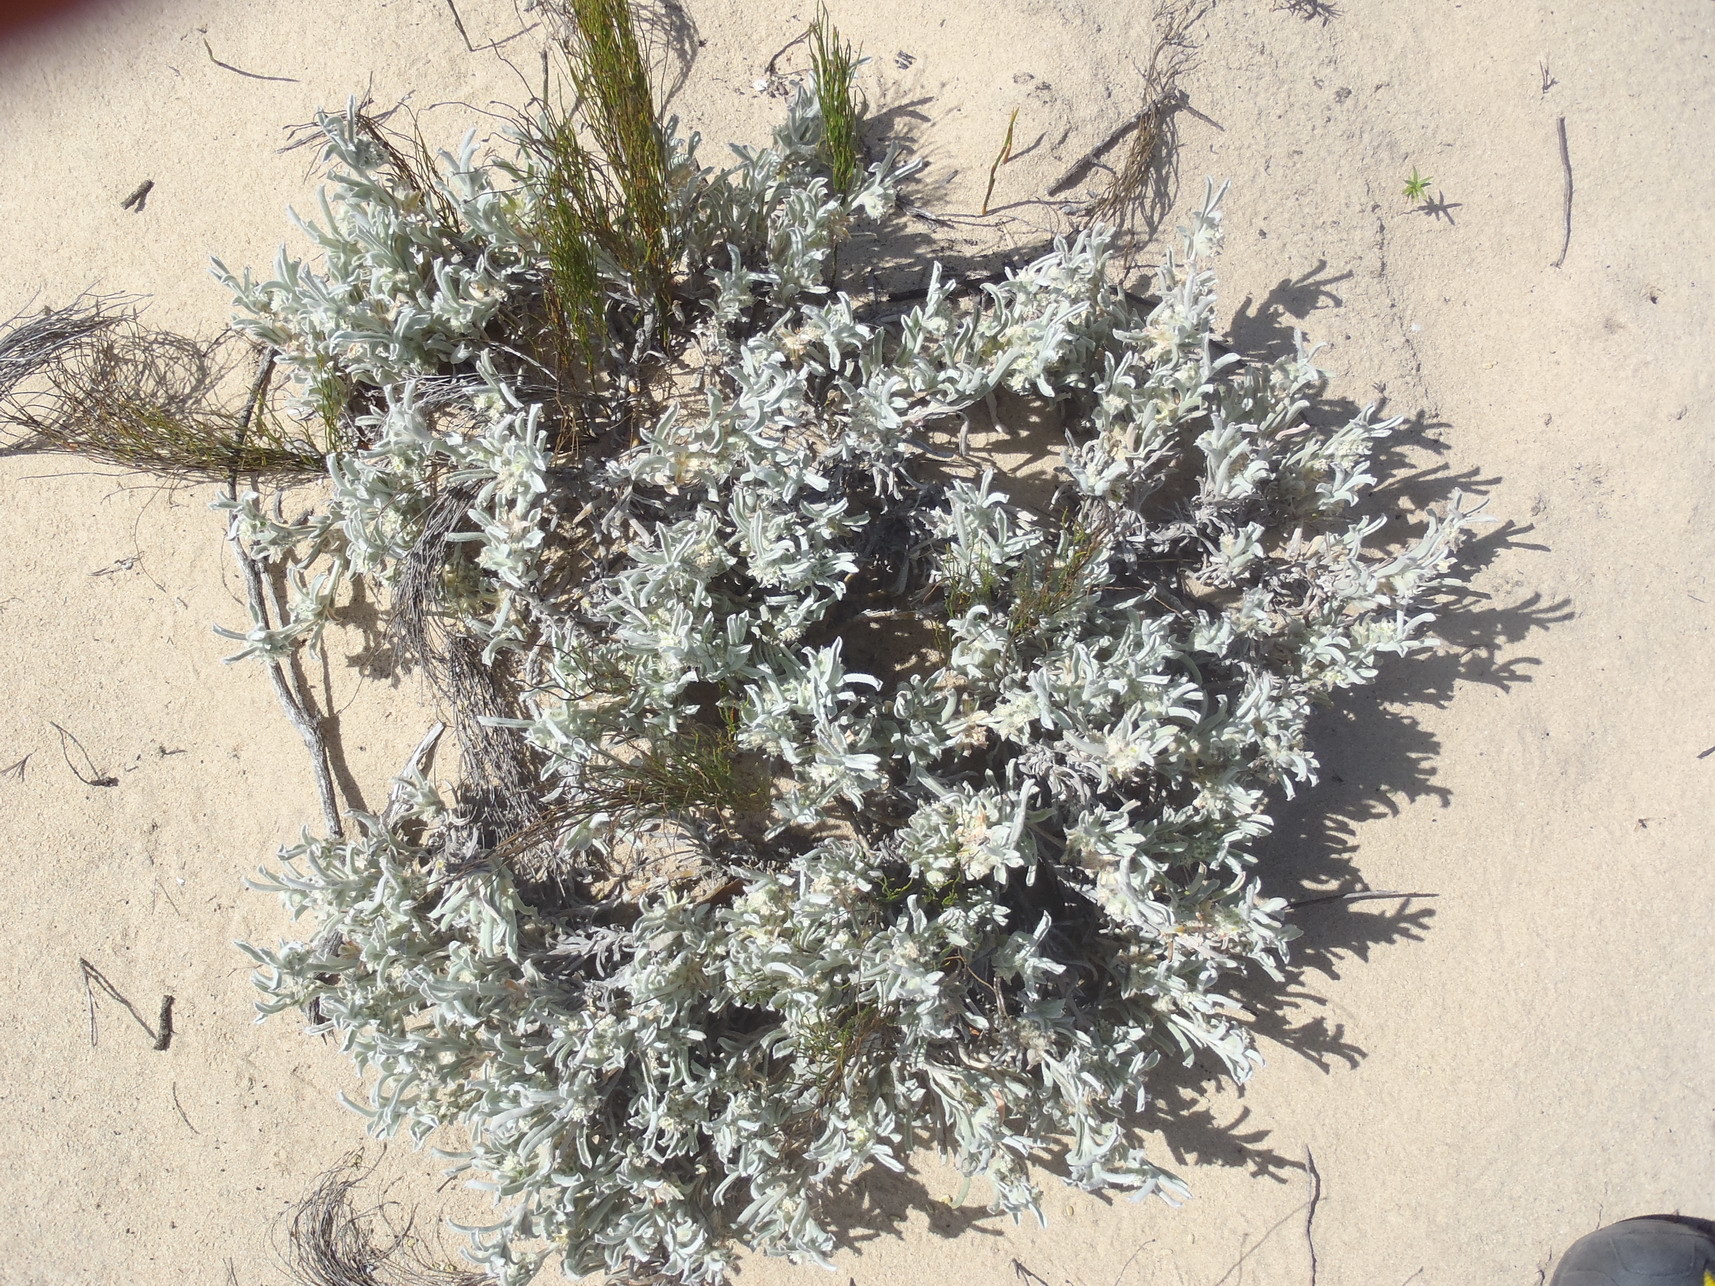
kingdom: Plantae
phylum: Tracheophyta
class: Magnoliopsida
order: Apiales
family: Apiaceae
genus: Centella
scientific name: Centella tridentata
